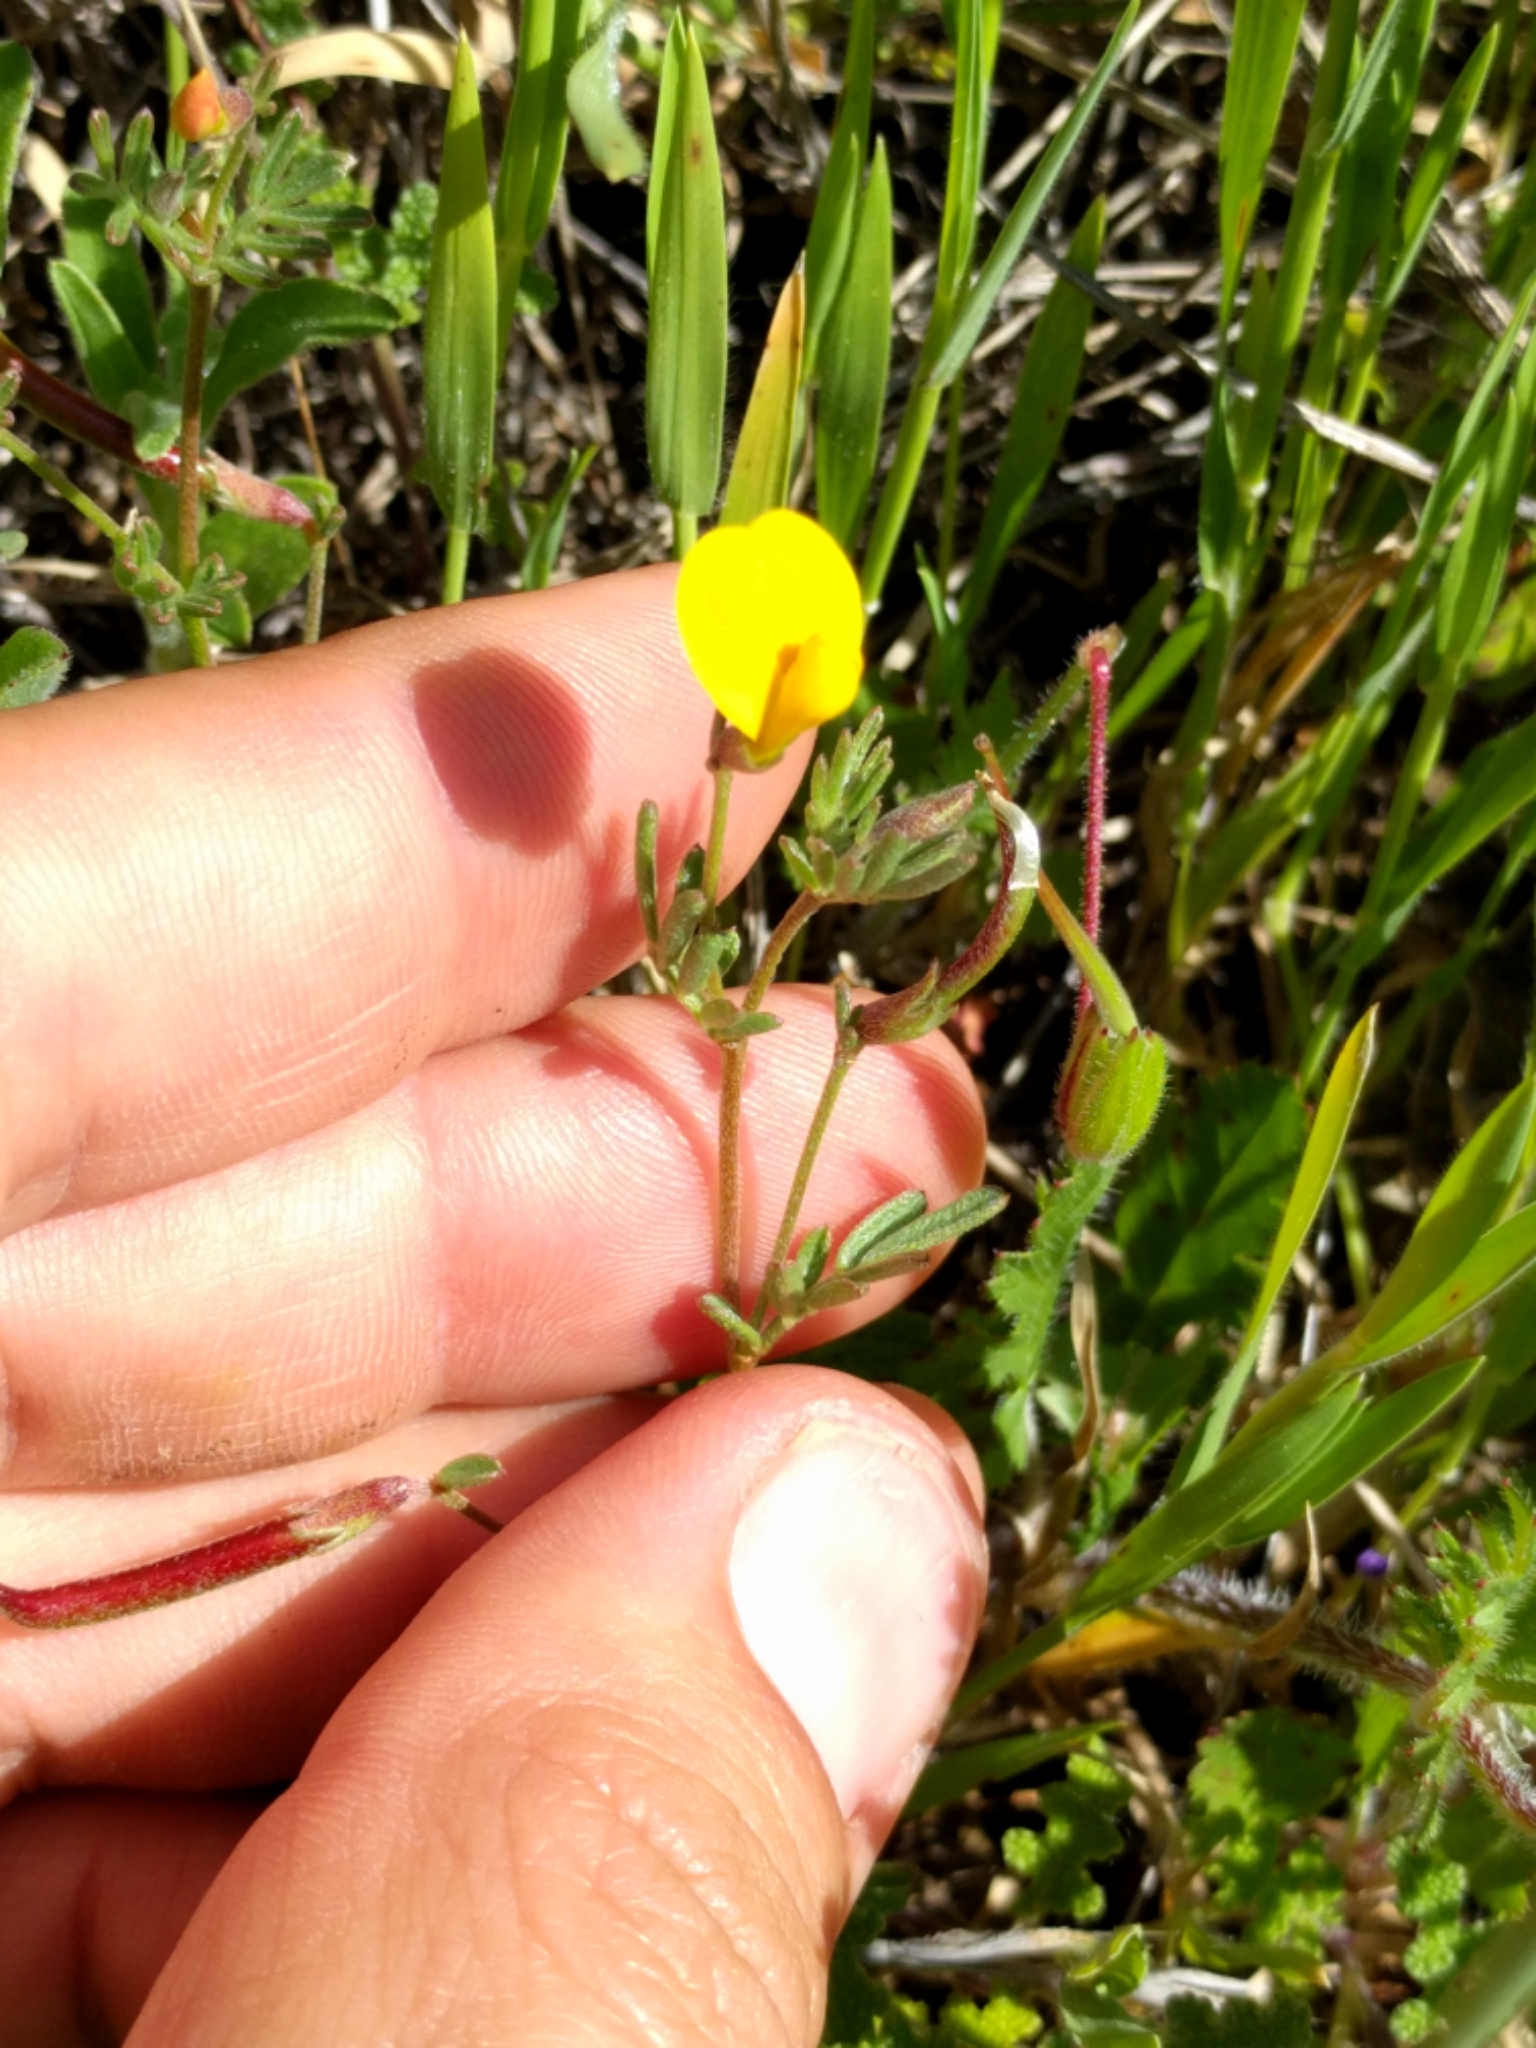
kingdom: Plantae
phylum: Tracheophyta
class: Magnoliopsida
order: Fabales
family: Fabaceae
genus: Acmispon
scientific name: Acmispon strigosus
